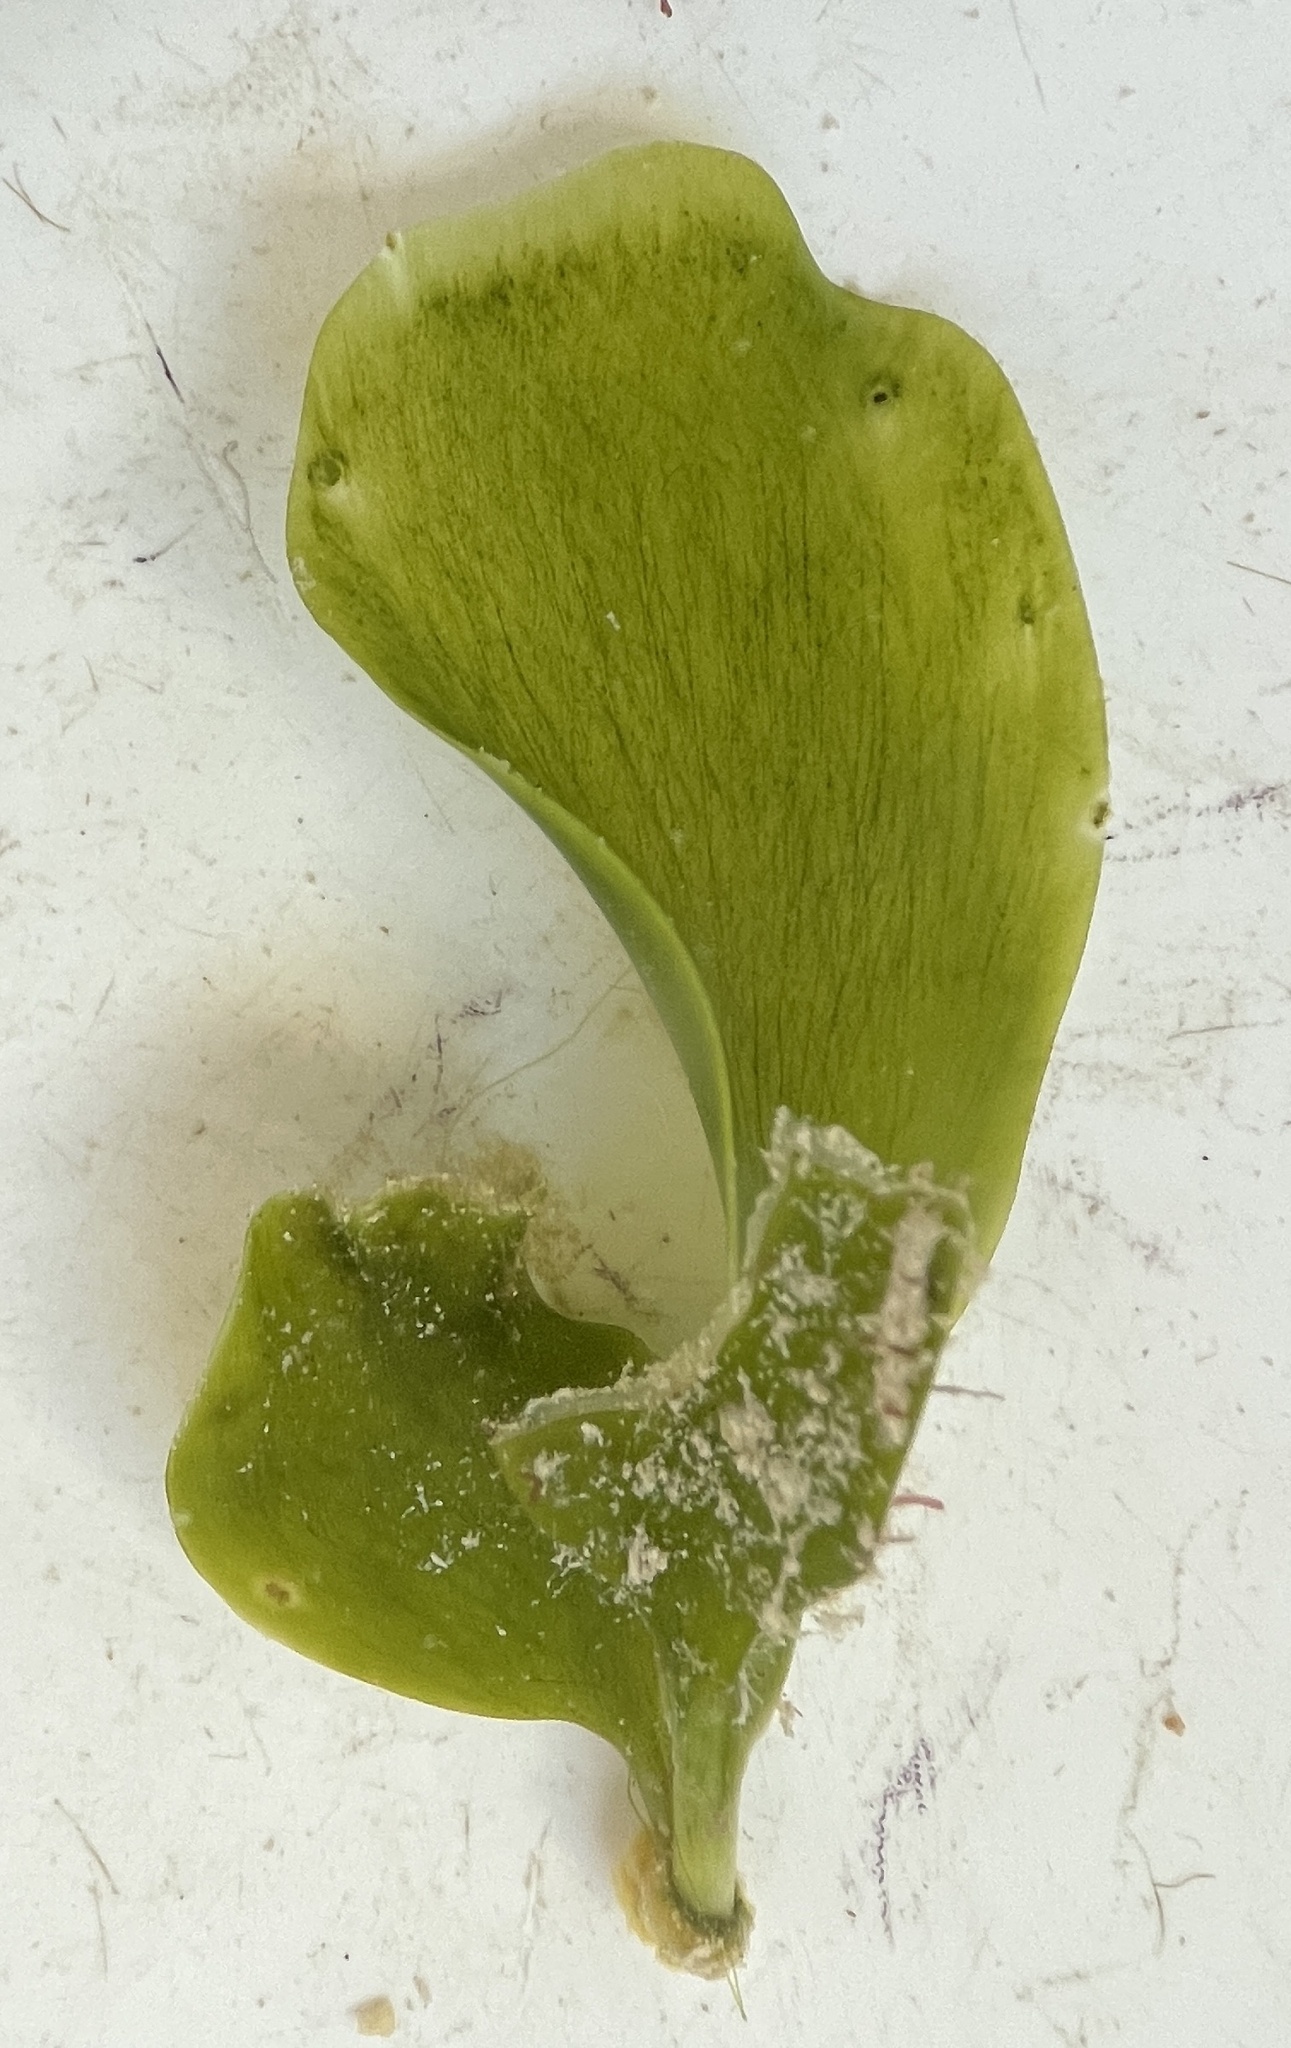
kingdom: Plantae
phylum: Chlorophyta
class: Ulvophyceae
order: Bryopsidales
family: Caulerpaceae
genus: Caulerpa
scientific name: Caulerpa prolifera
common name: Oval-blade algae
